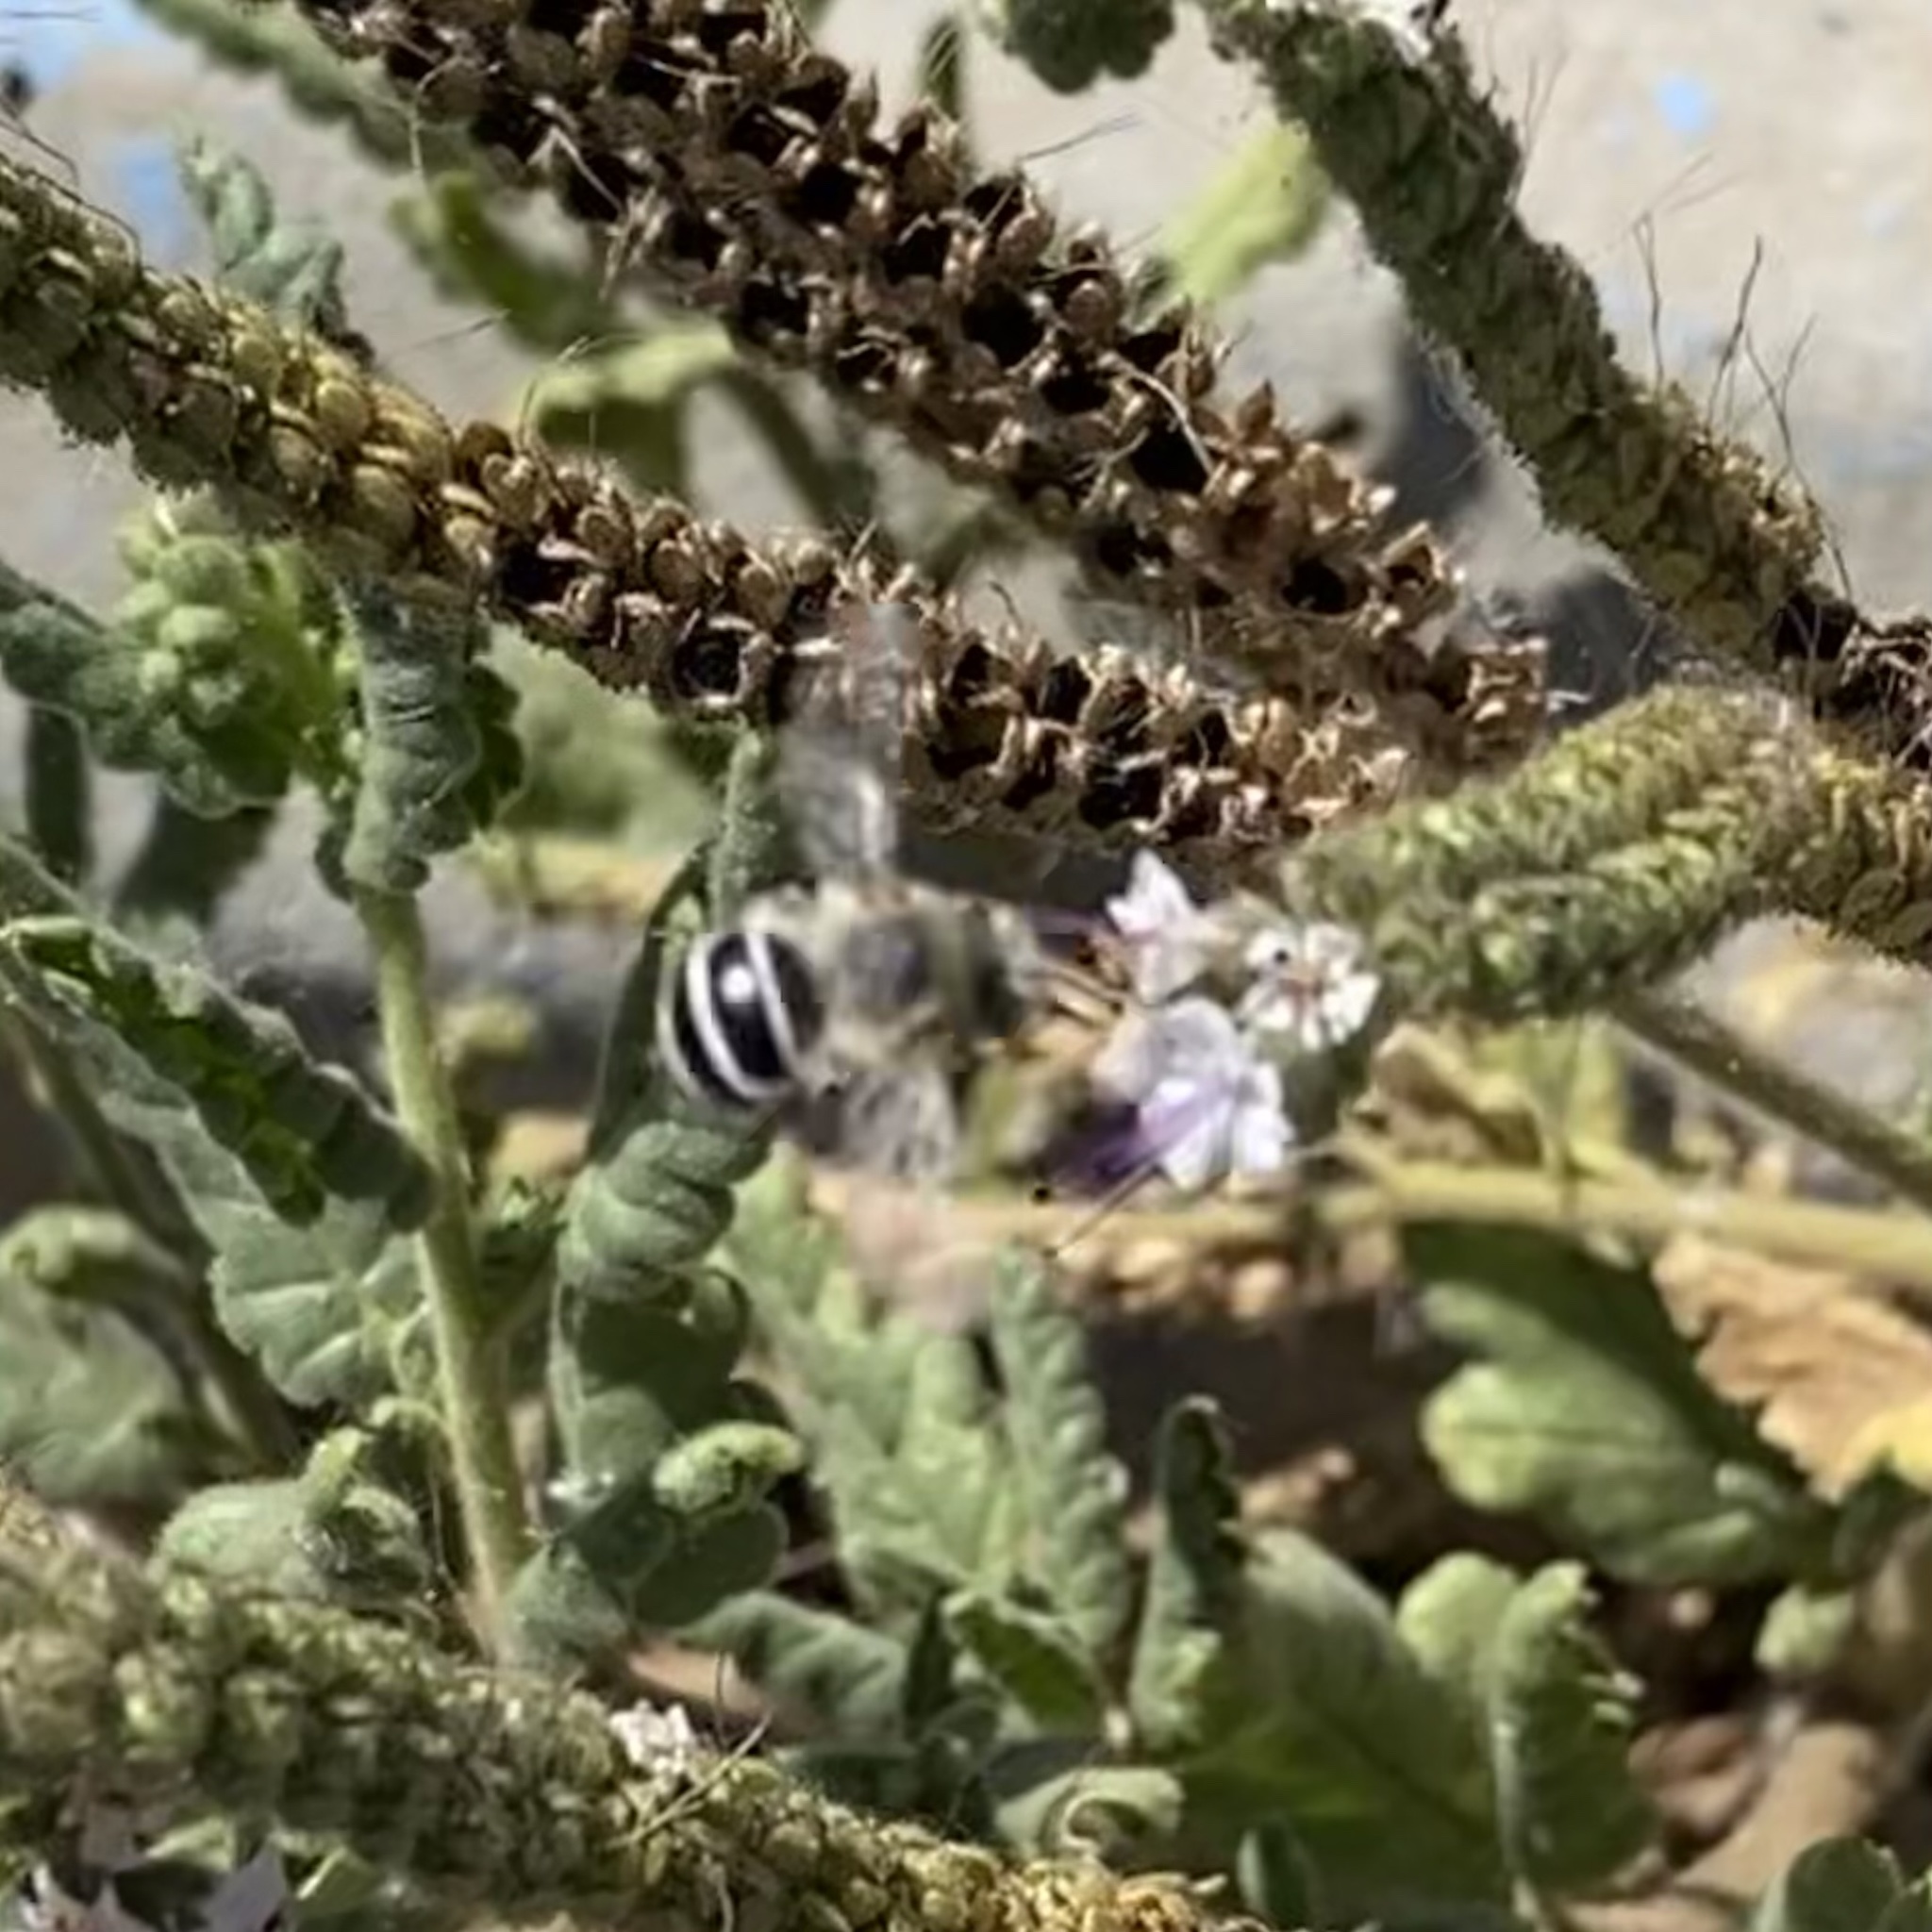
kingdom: Animalia
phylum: Arthropoda
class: Insecta
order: Hymenoptera
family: Apidae
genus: Anthophora
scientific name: Anthophora californica
